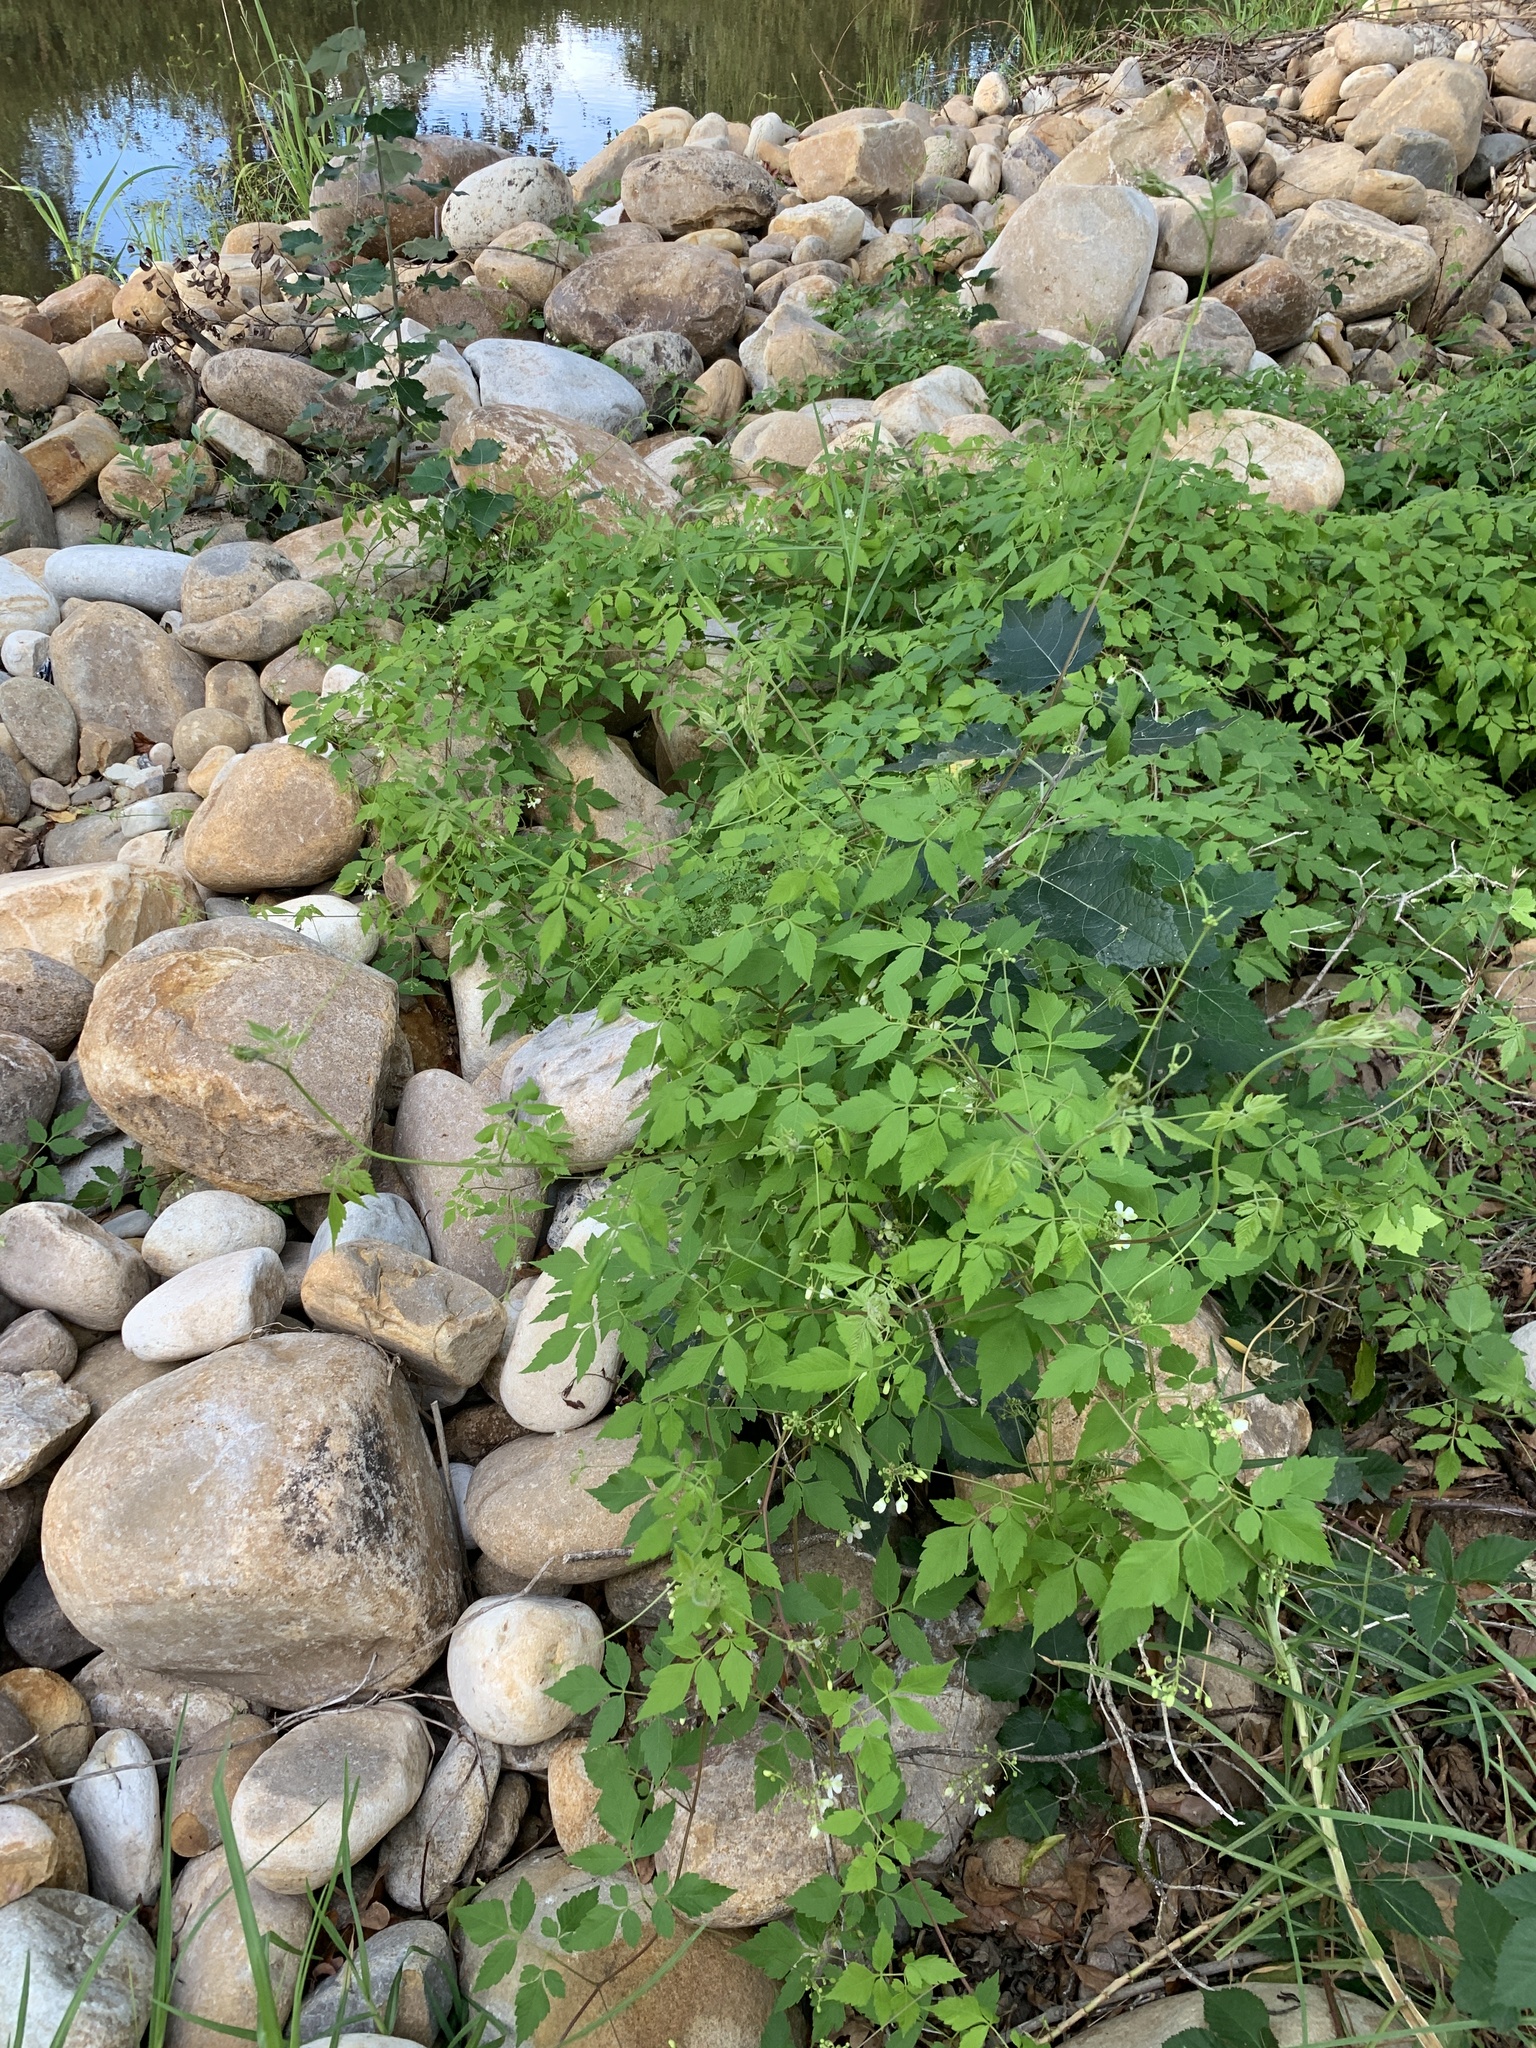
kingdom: Plantae
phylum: Tracheophyta
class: Magnoliopsida
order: Sapindales
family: Sapindaceae
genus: Cardiospermum
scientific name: Cardiospermum grandiflorum
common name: Balloon vine
